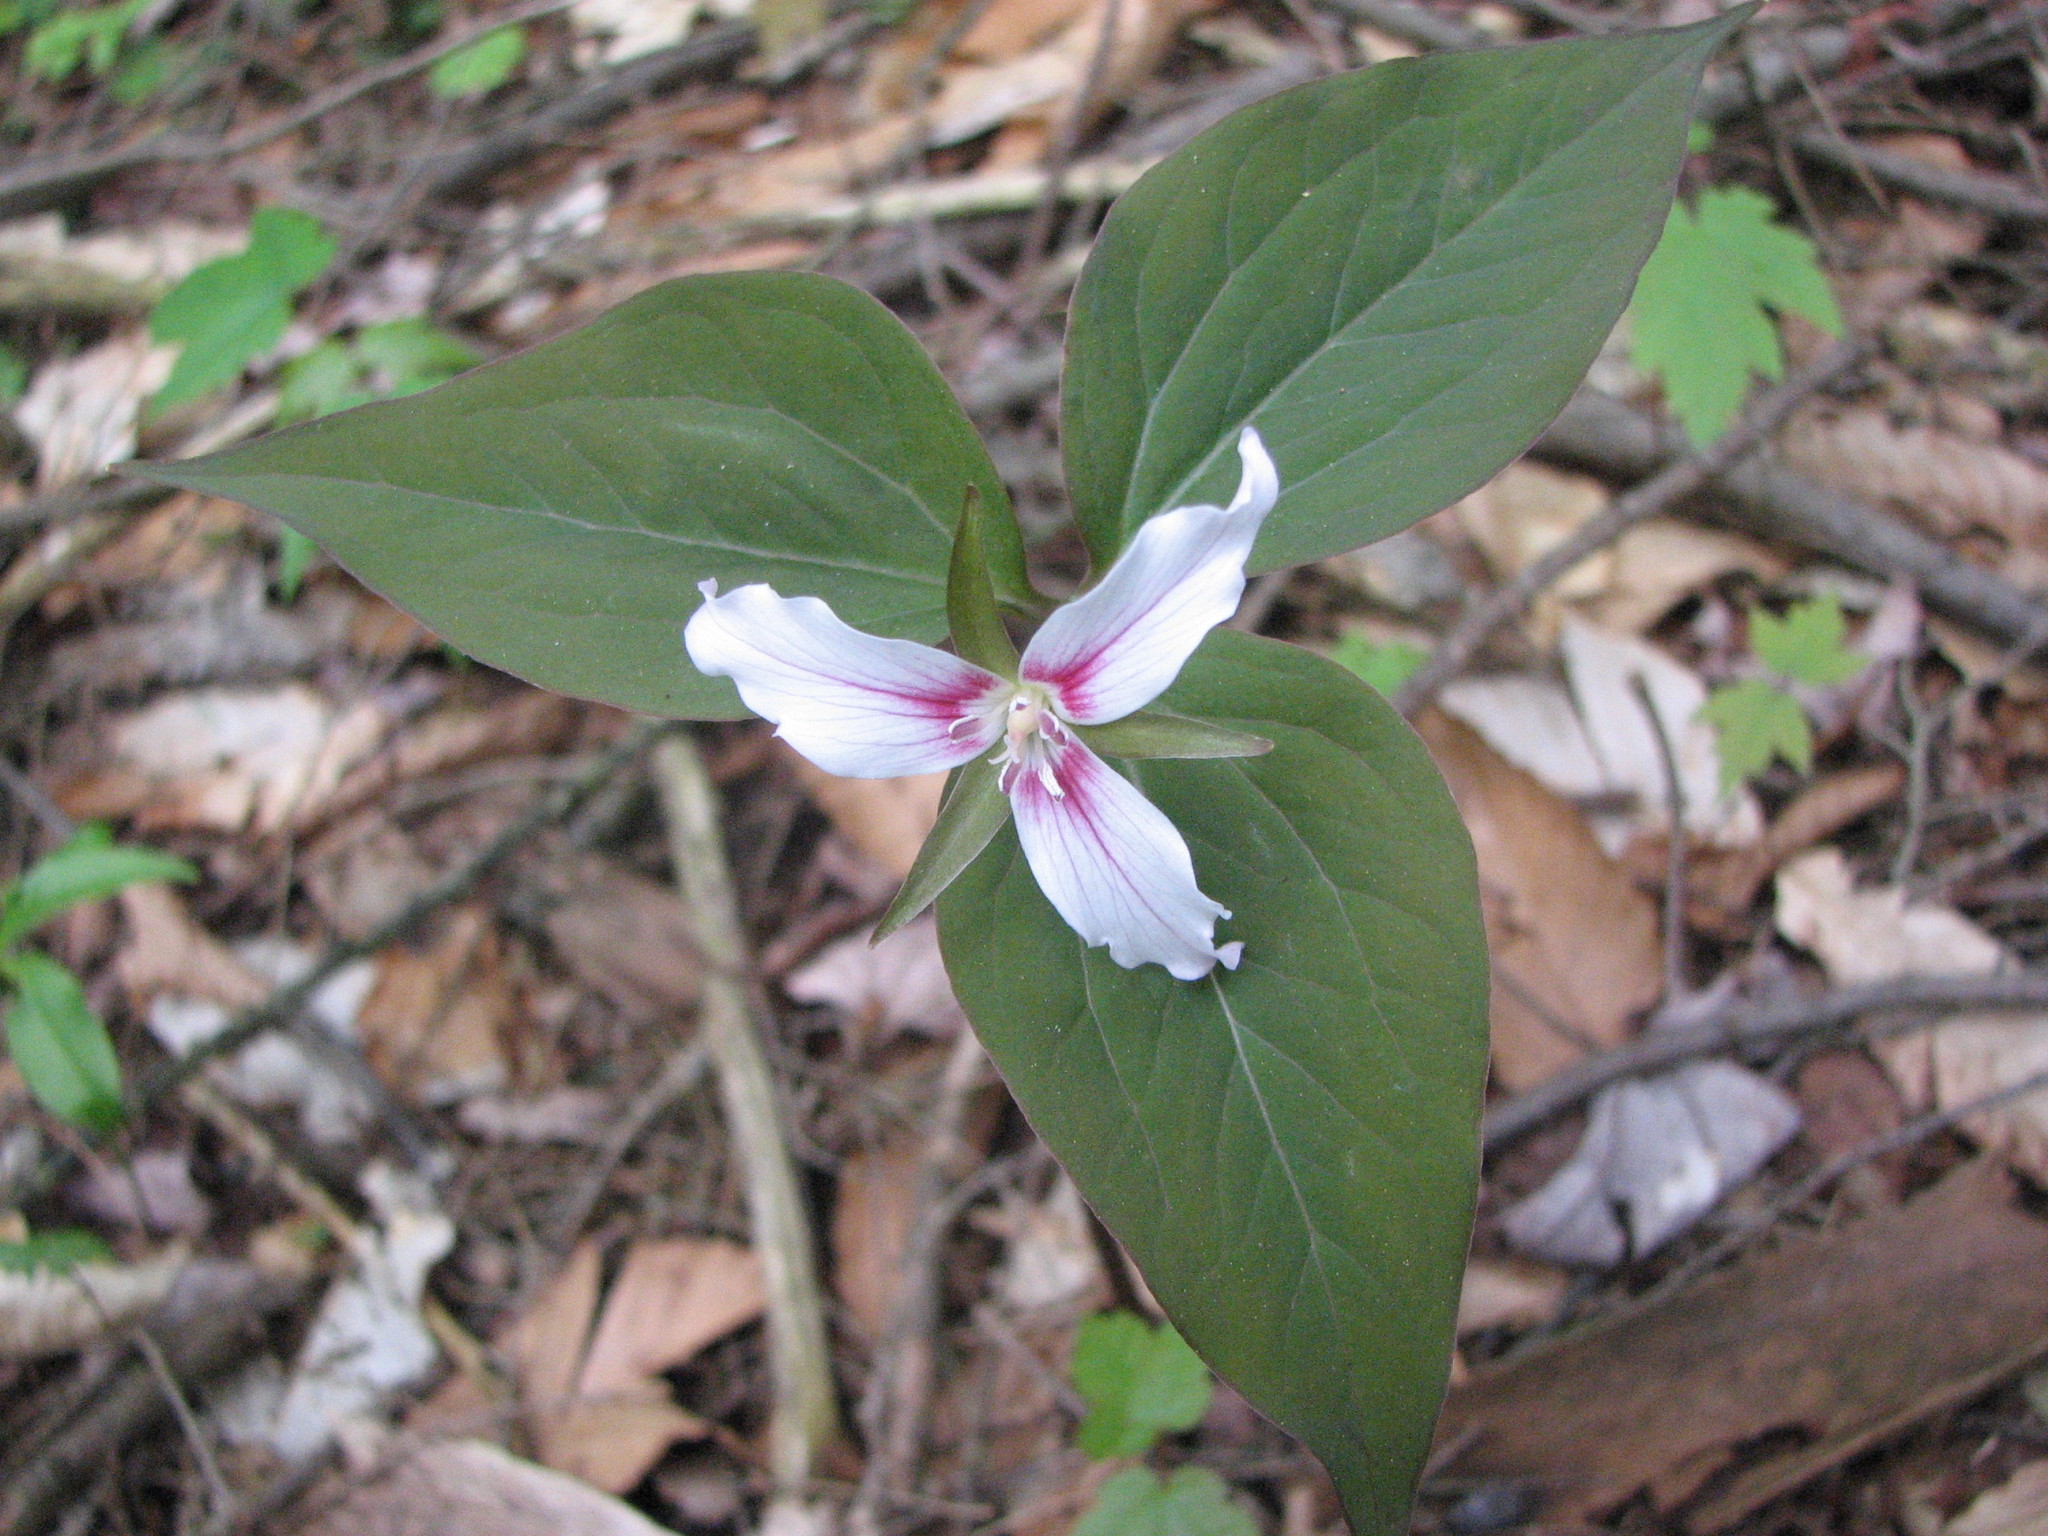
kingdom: Plantae
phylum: Tracheophyta
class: Liliopsida
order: Liliales
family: Melanthiaceae
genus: Trillium
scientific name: Trillium undulatum
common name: Paint trillium
